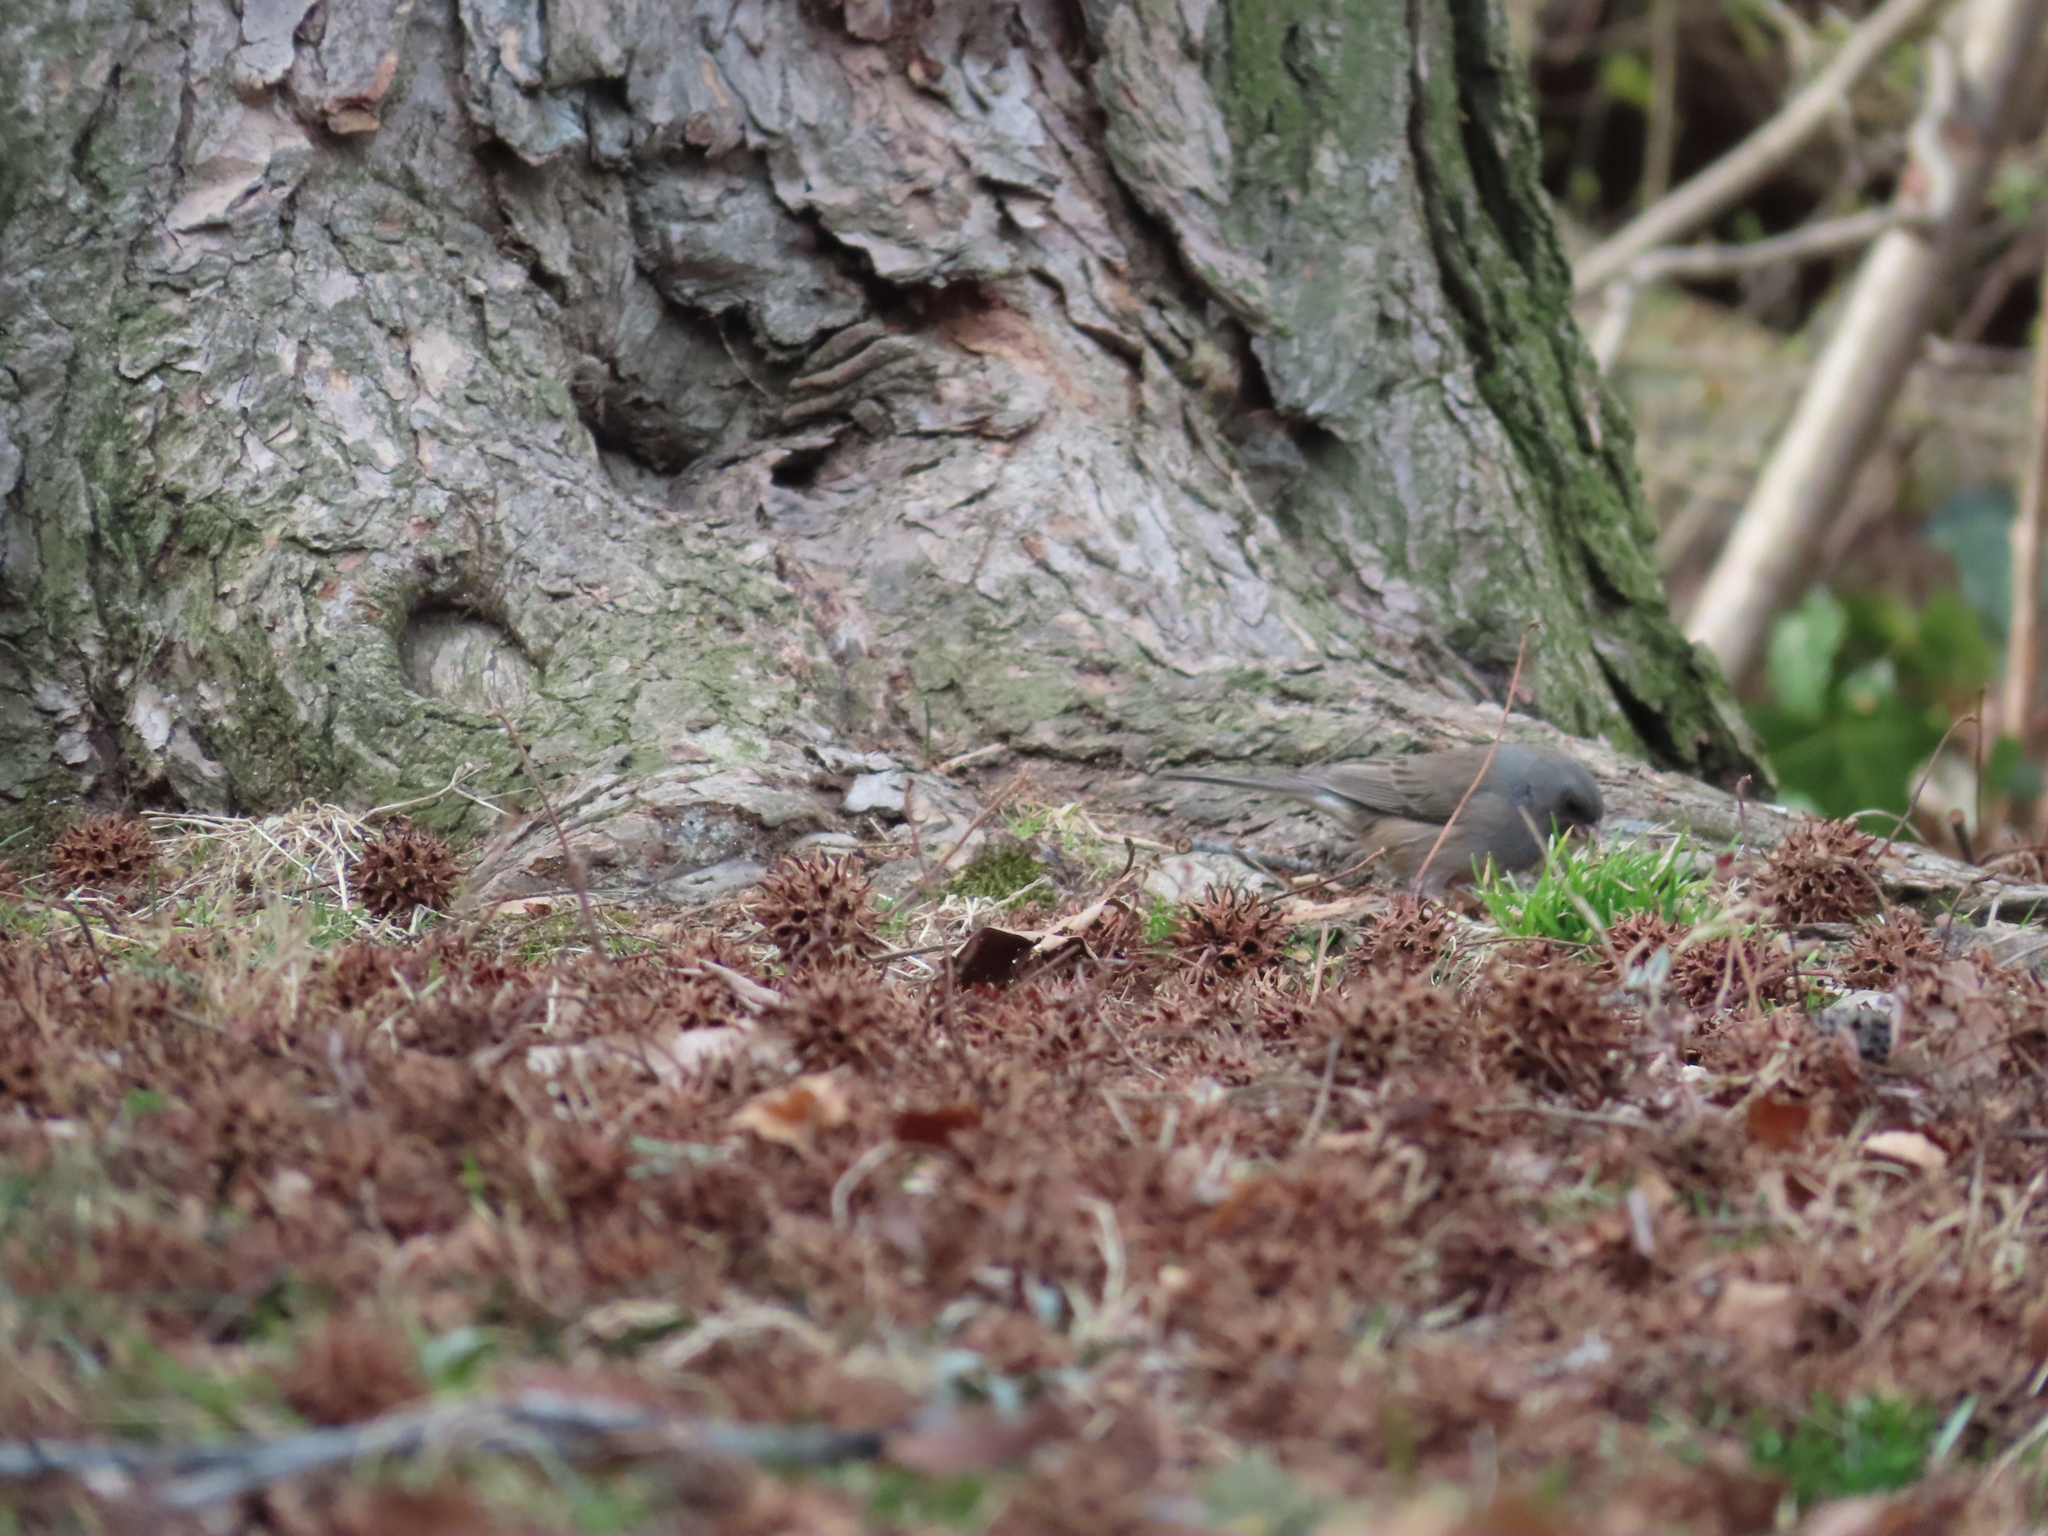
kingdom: Animalia
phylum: Chordata
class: Aves
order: Passeriformes
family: Passerellidae
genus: Junco
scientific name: Junco hyemalis
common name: Dark-eyed junco
